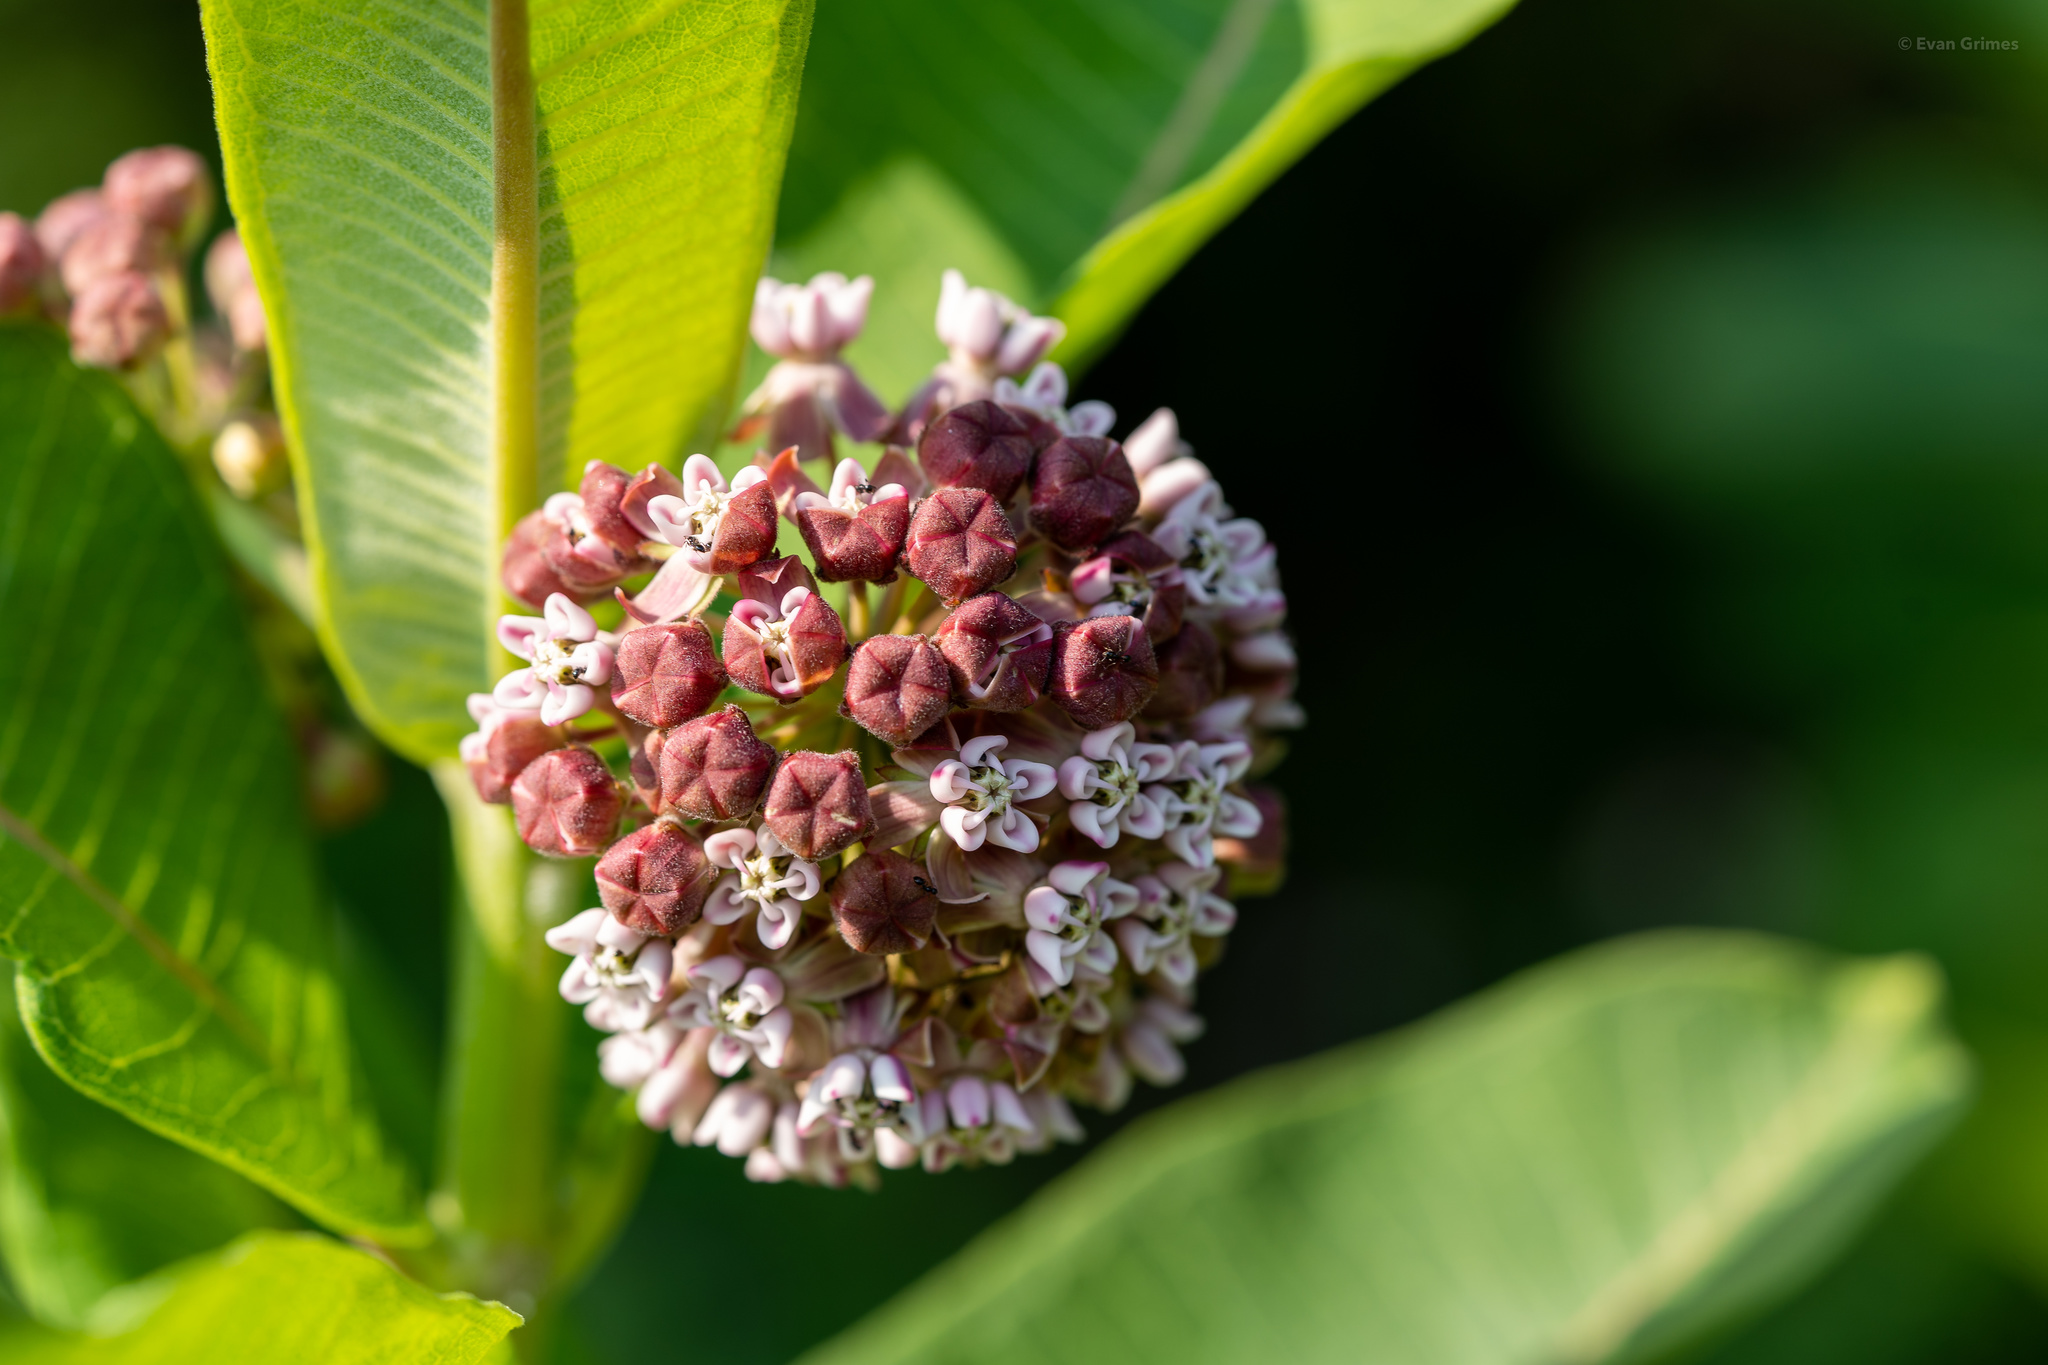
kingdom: Plantae
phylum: Tracheophyta
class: Magnoliopsida
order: Gentianales
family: Apocynaceae
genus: Asclepias
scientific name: Asclepias syriaca
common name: Common milkweed
